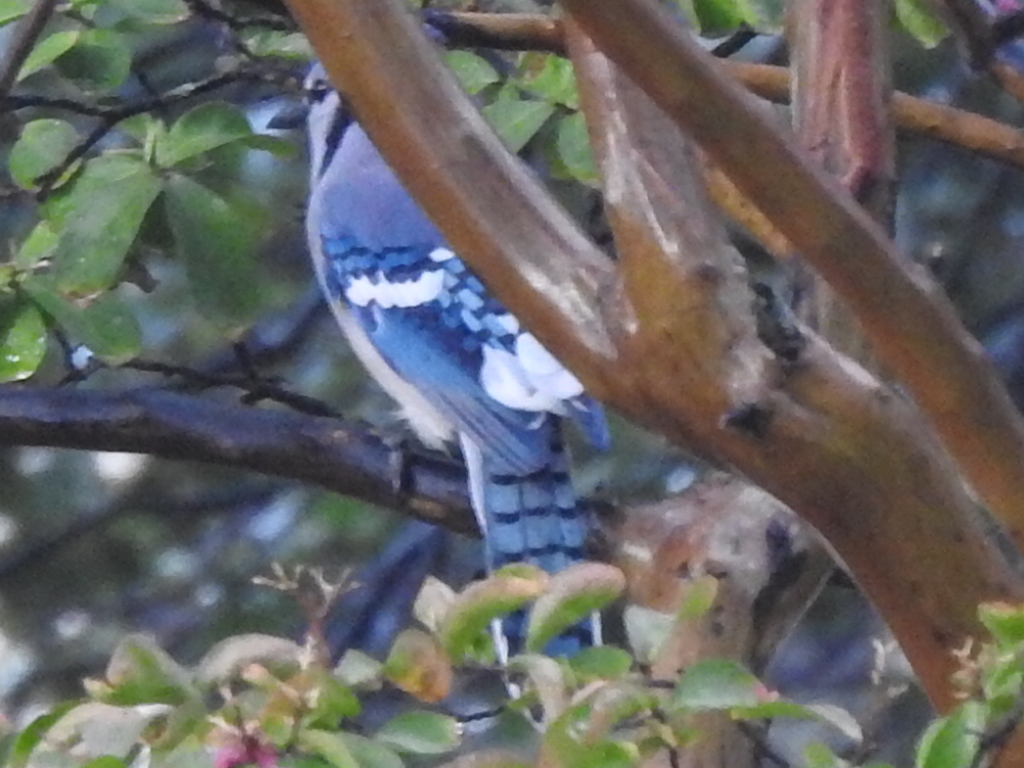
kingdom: Animalia
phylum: Chordata
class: Aves
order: Passeriformes
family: Corvidae
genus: Cyanocitta
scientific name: Cyanocitta cristata
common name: Blue jay
